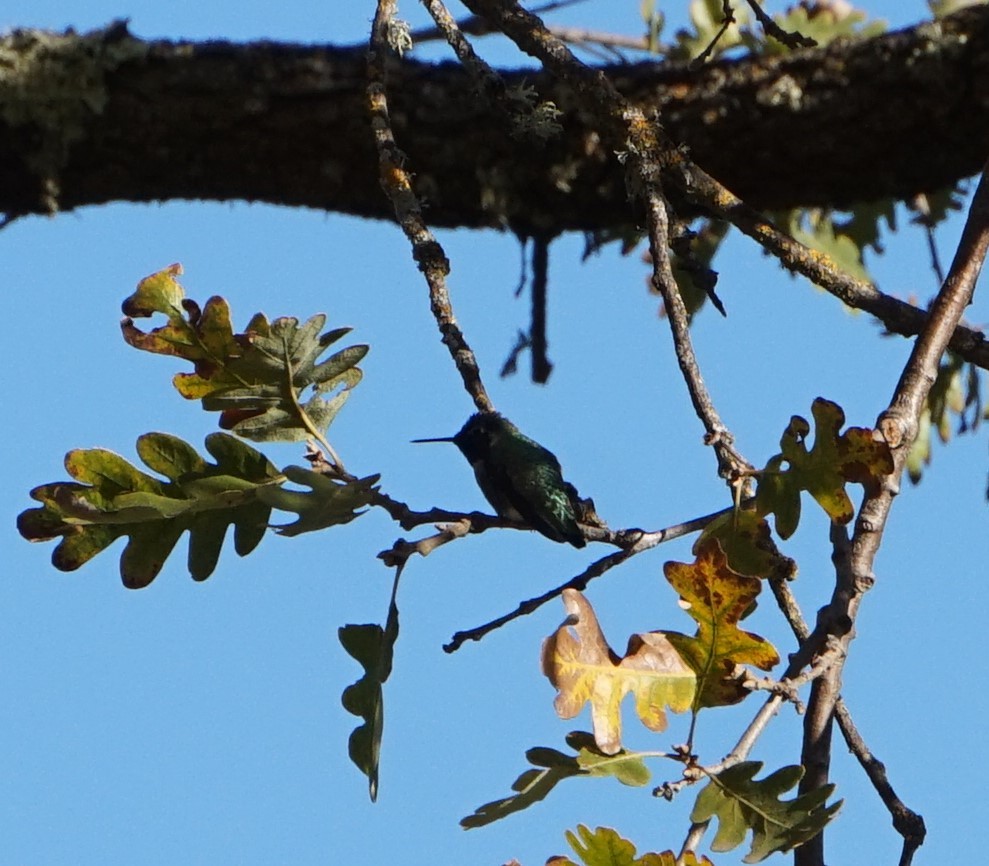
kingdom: Animalia
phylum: Chordata
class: Aves
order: Apodiformes
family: Trochilidae
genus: Calypte
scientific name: Calypte anna
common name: Anna's hummingbird
